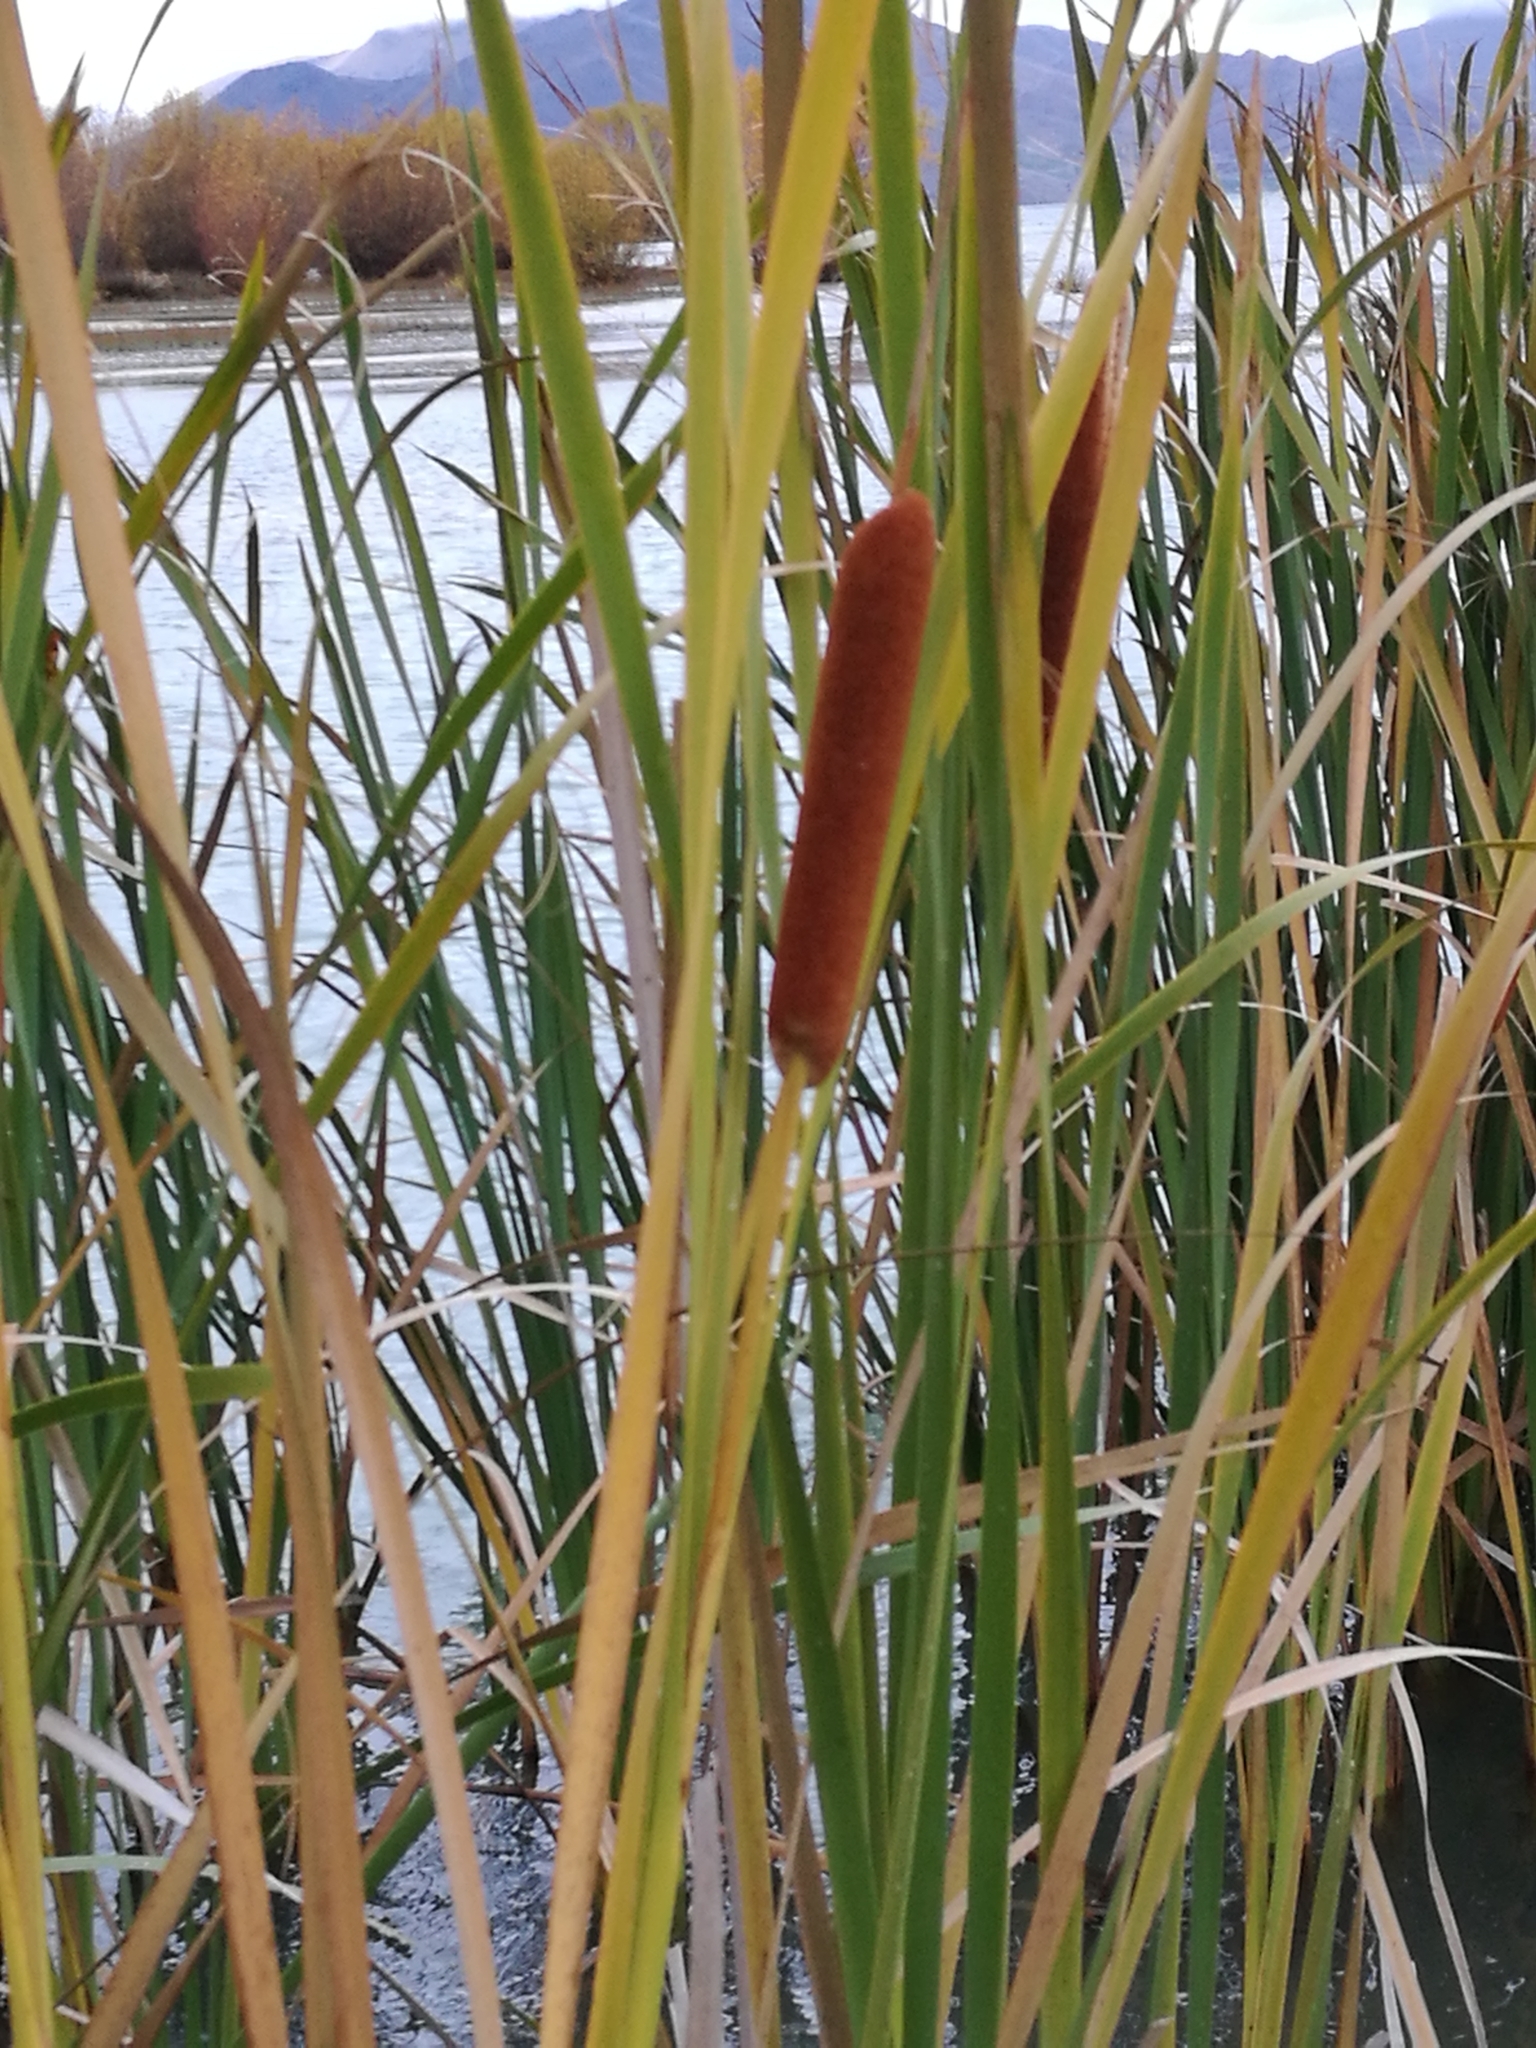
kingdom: Plantae
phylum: Tracheophyta
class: Liliopsida
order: Poales
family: Typhaceae
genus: Typha
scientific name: Typha orientalis
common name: Bullrush
